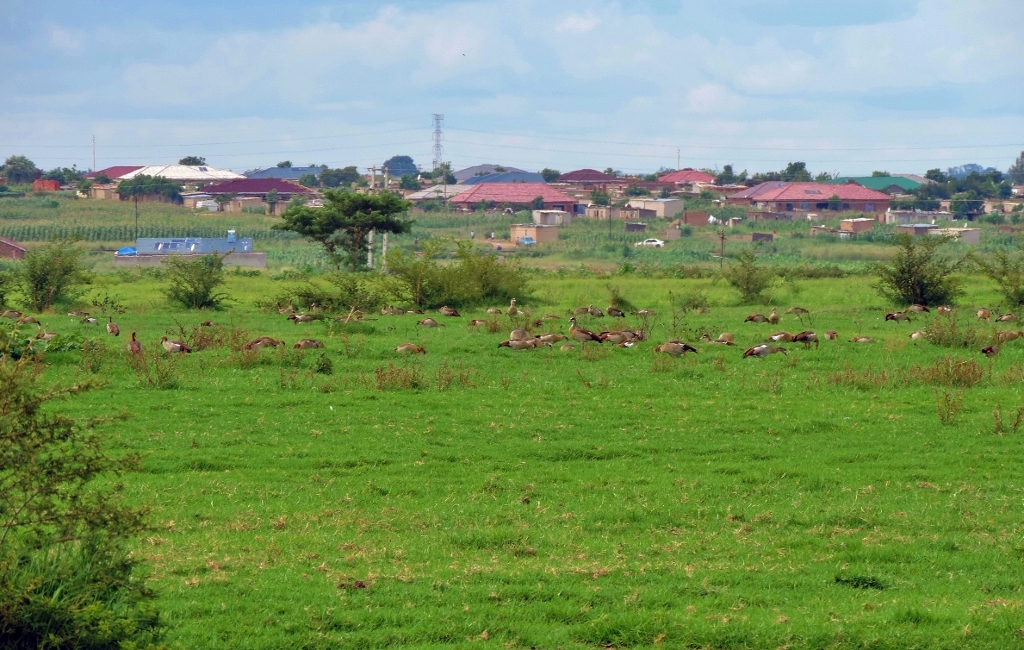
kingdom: Animalia
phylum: Chordata
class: Aves
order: Anseriformes
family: Anatidae
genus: Alopochen
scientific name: Alopochen aegyptiaca
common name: Egyptian goose
